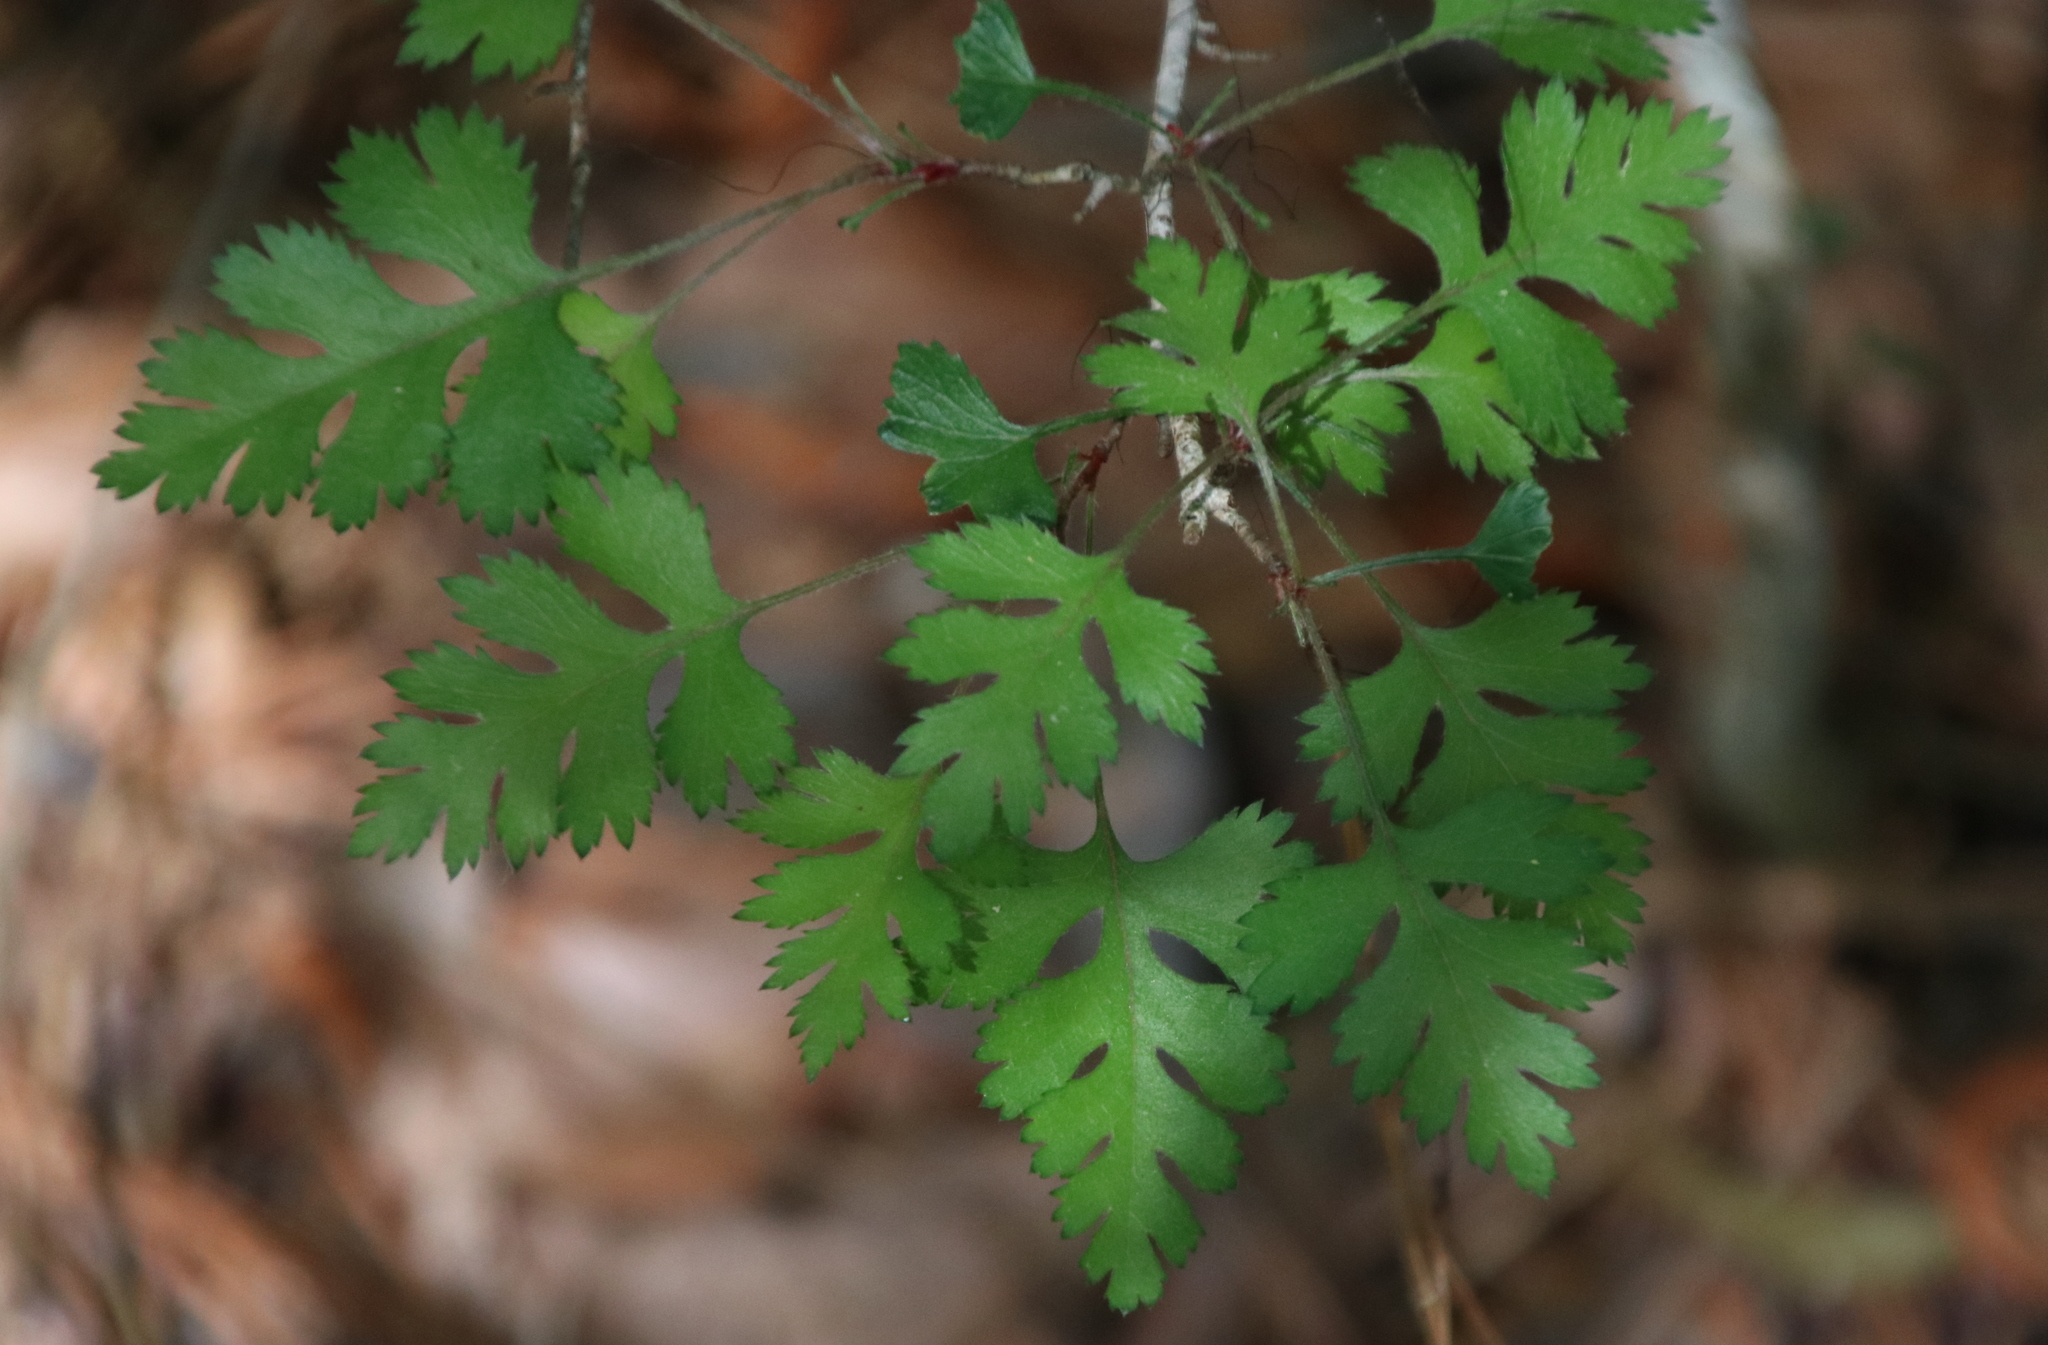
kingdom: Plantae
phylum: Tracheophyta
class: Magnoliopsida
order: Rosales
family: Rosaceae
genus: Crataegus
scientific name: Crataegus marshallii
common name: Parsley-hawthorn
